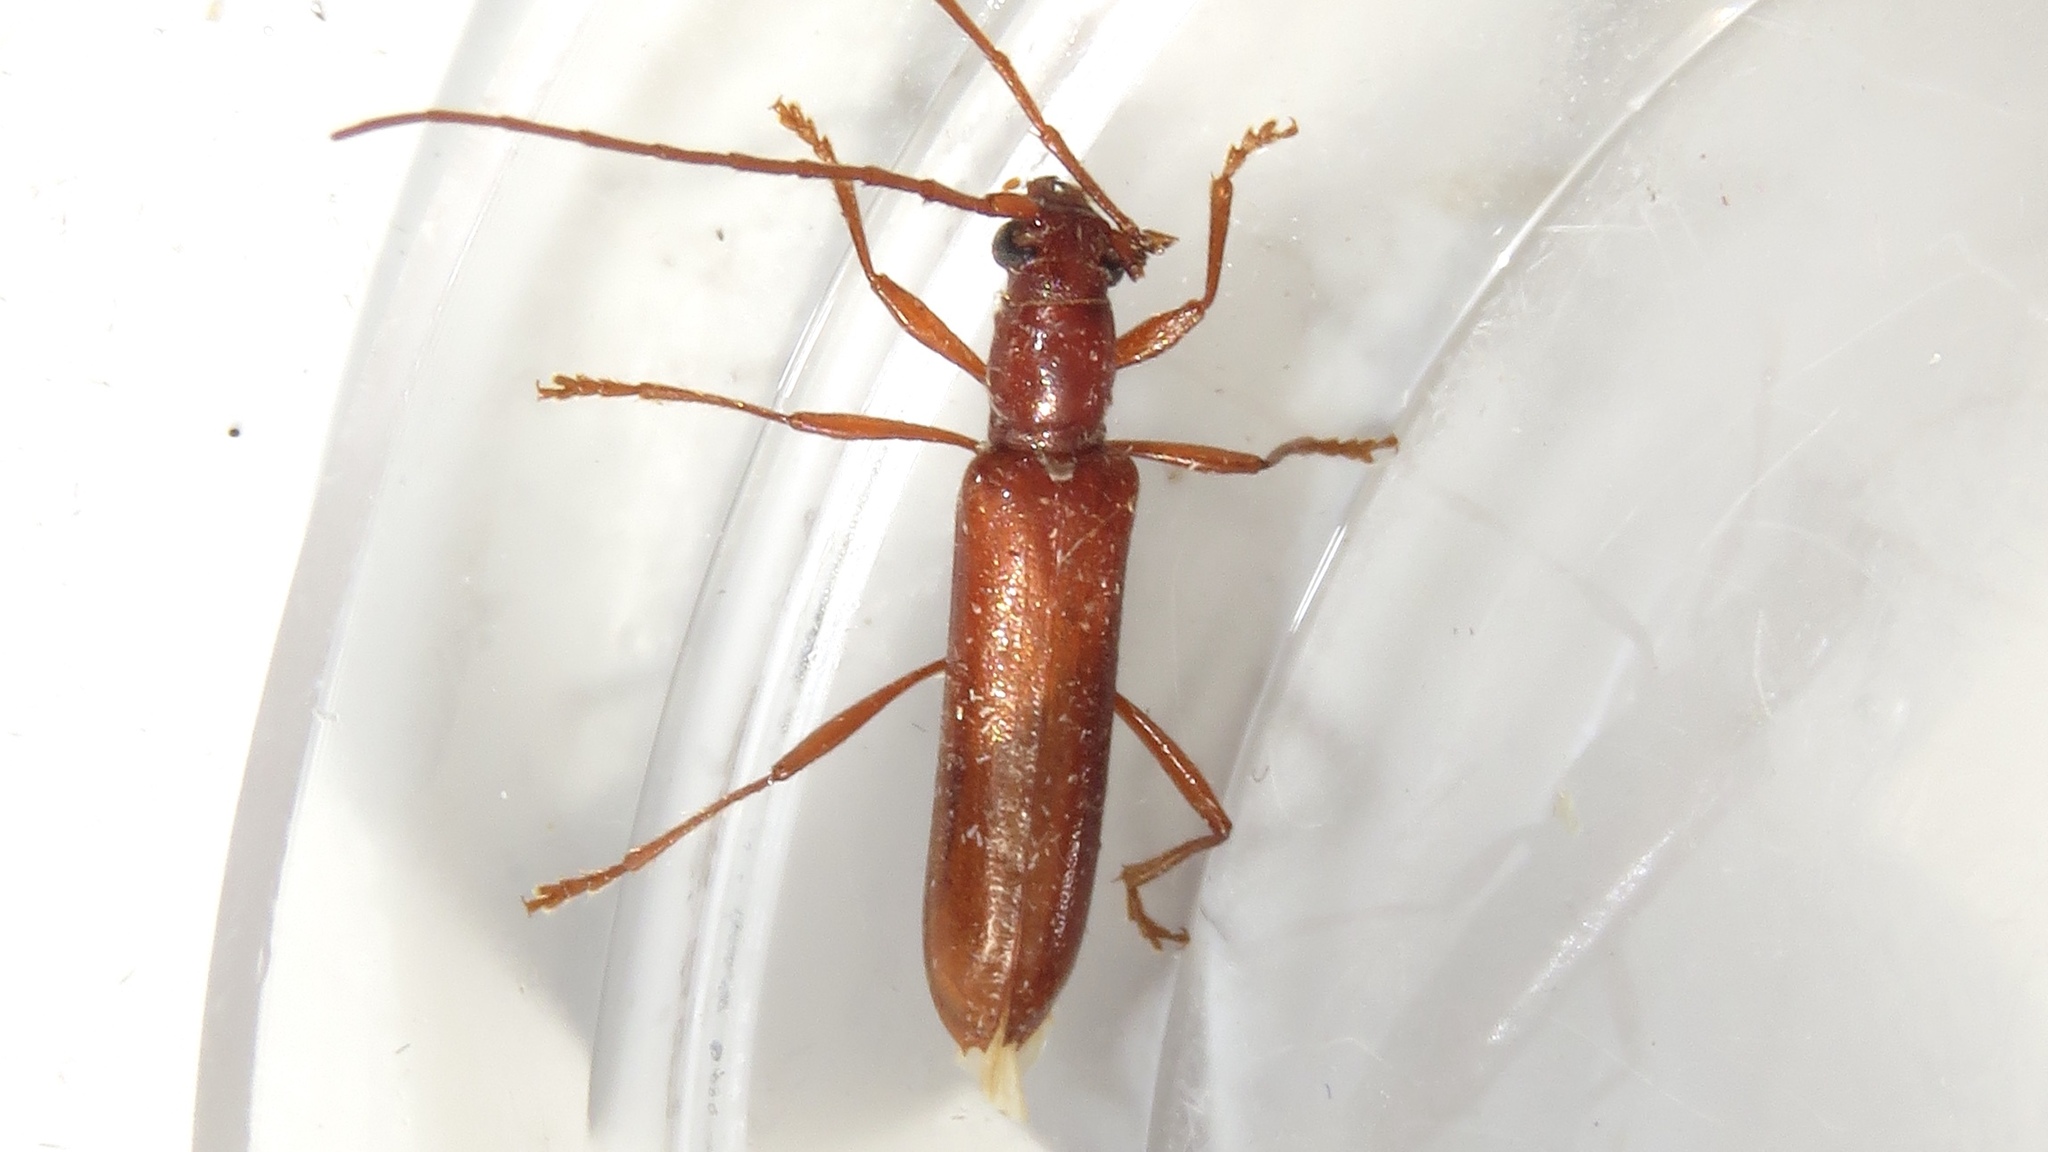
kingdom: Animalia
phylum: Arthropoda
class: Insecta
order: Coleoptera
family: Cerambycidae
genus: Psyrassa
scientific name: Psyrassa unicolor
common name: Branch pruner
